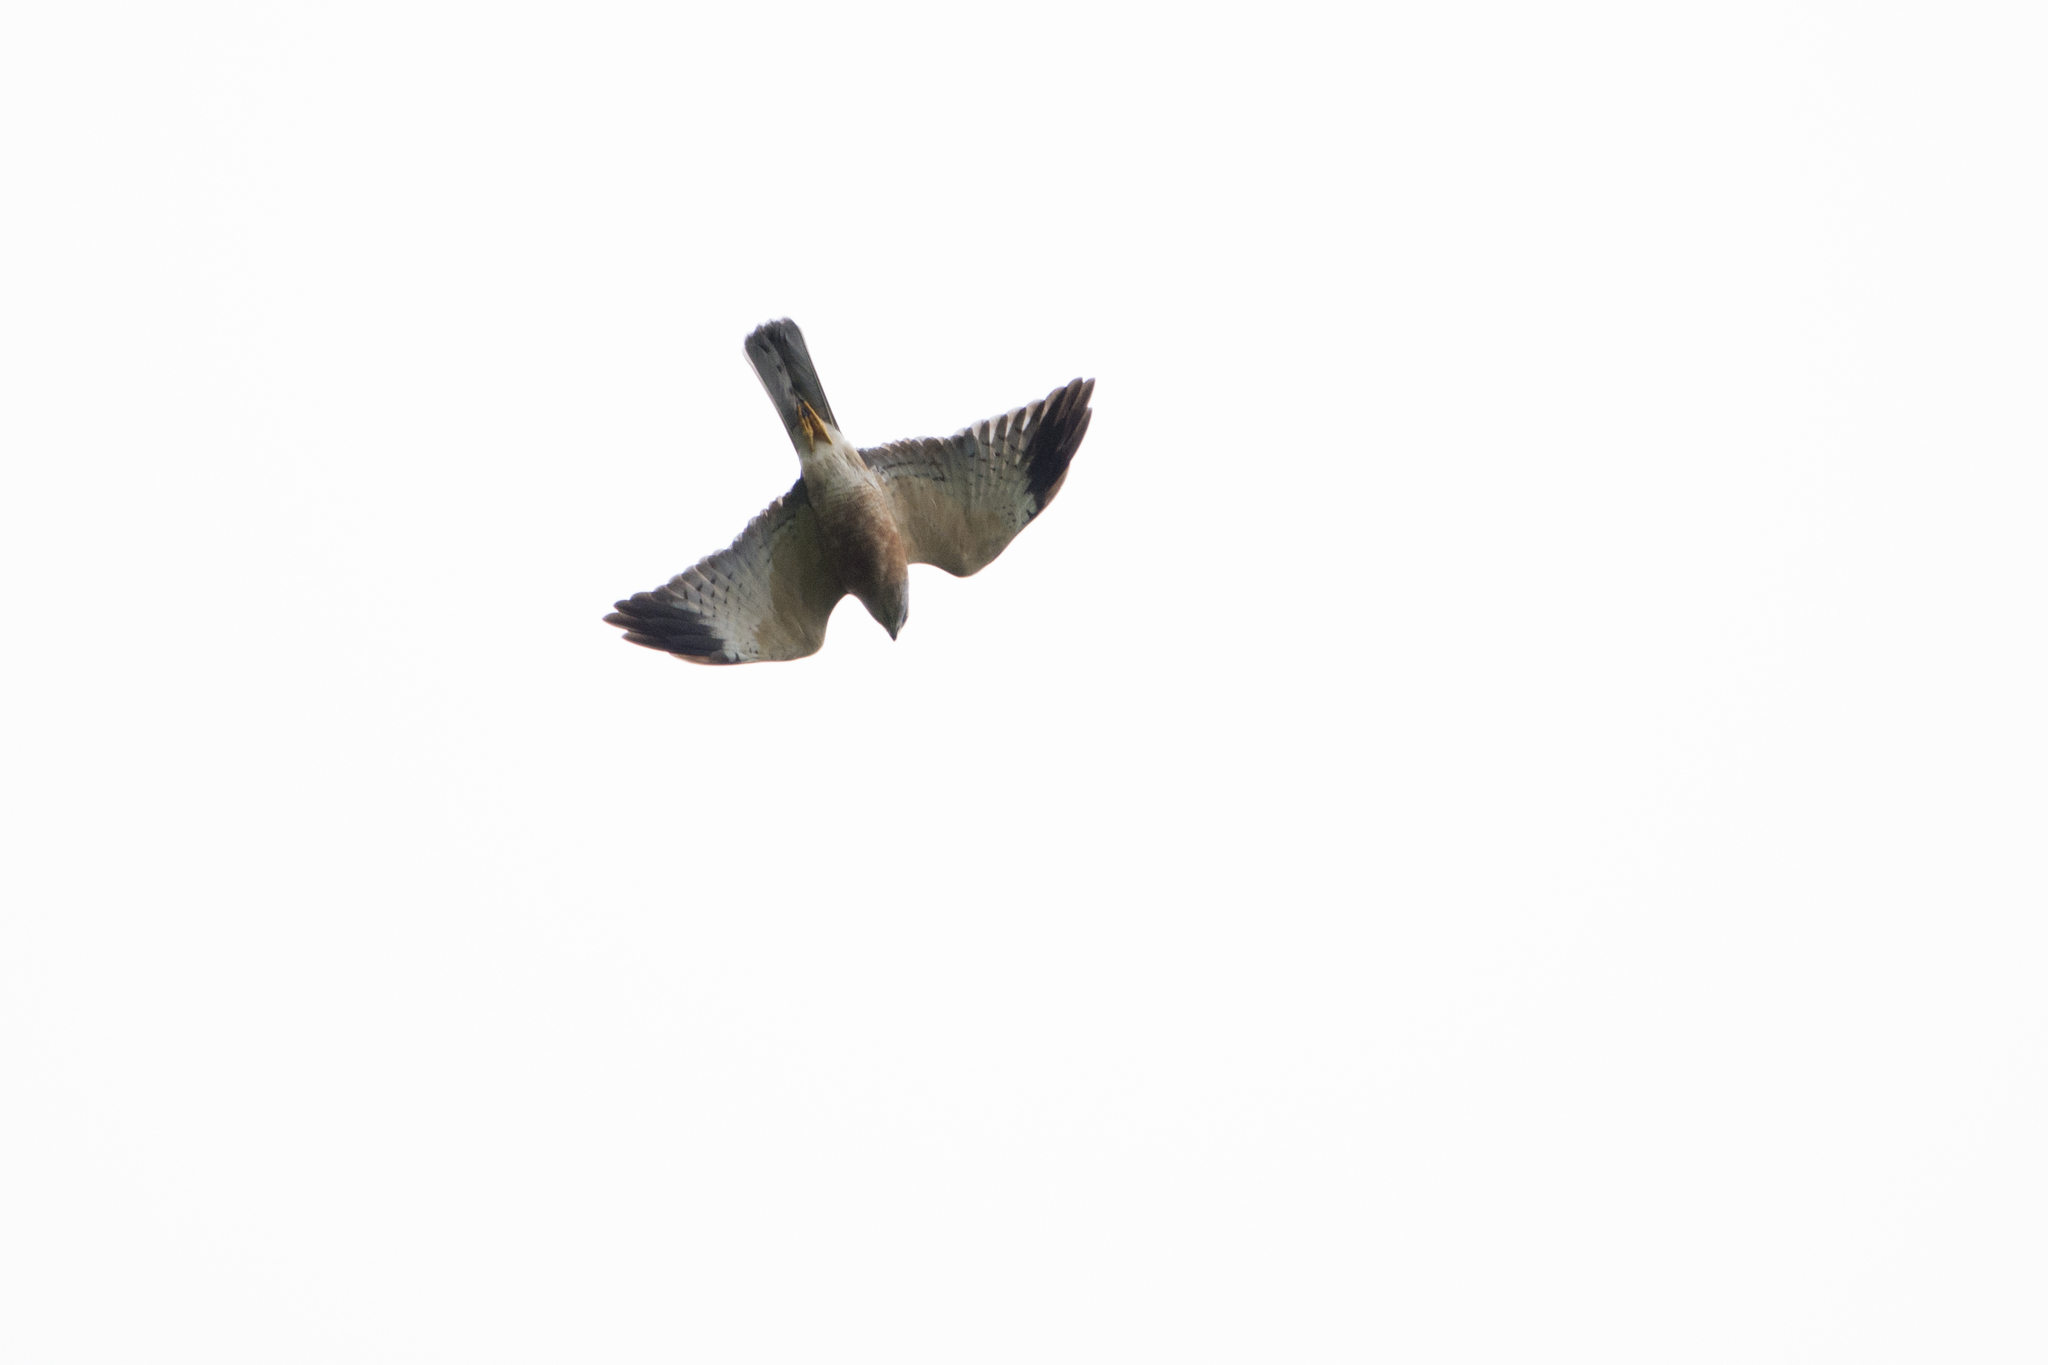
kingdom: Animalia
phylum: Chordata
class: Aves
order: Accipitriformes
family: Accipitridae
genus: Accipiter
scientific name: Accipiter soloensis
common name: Chinese sparrowhawk
